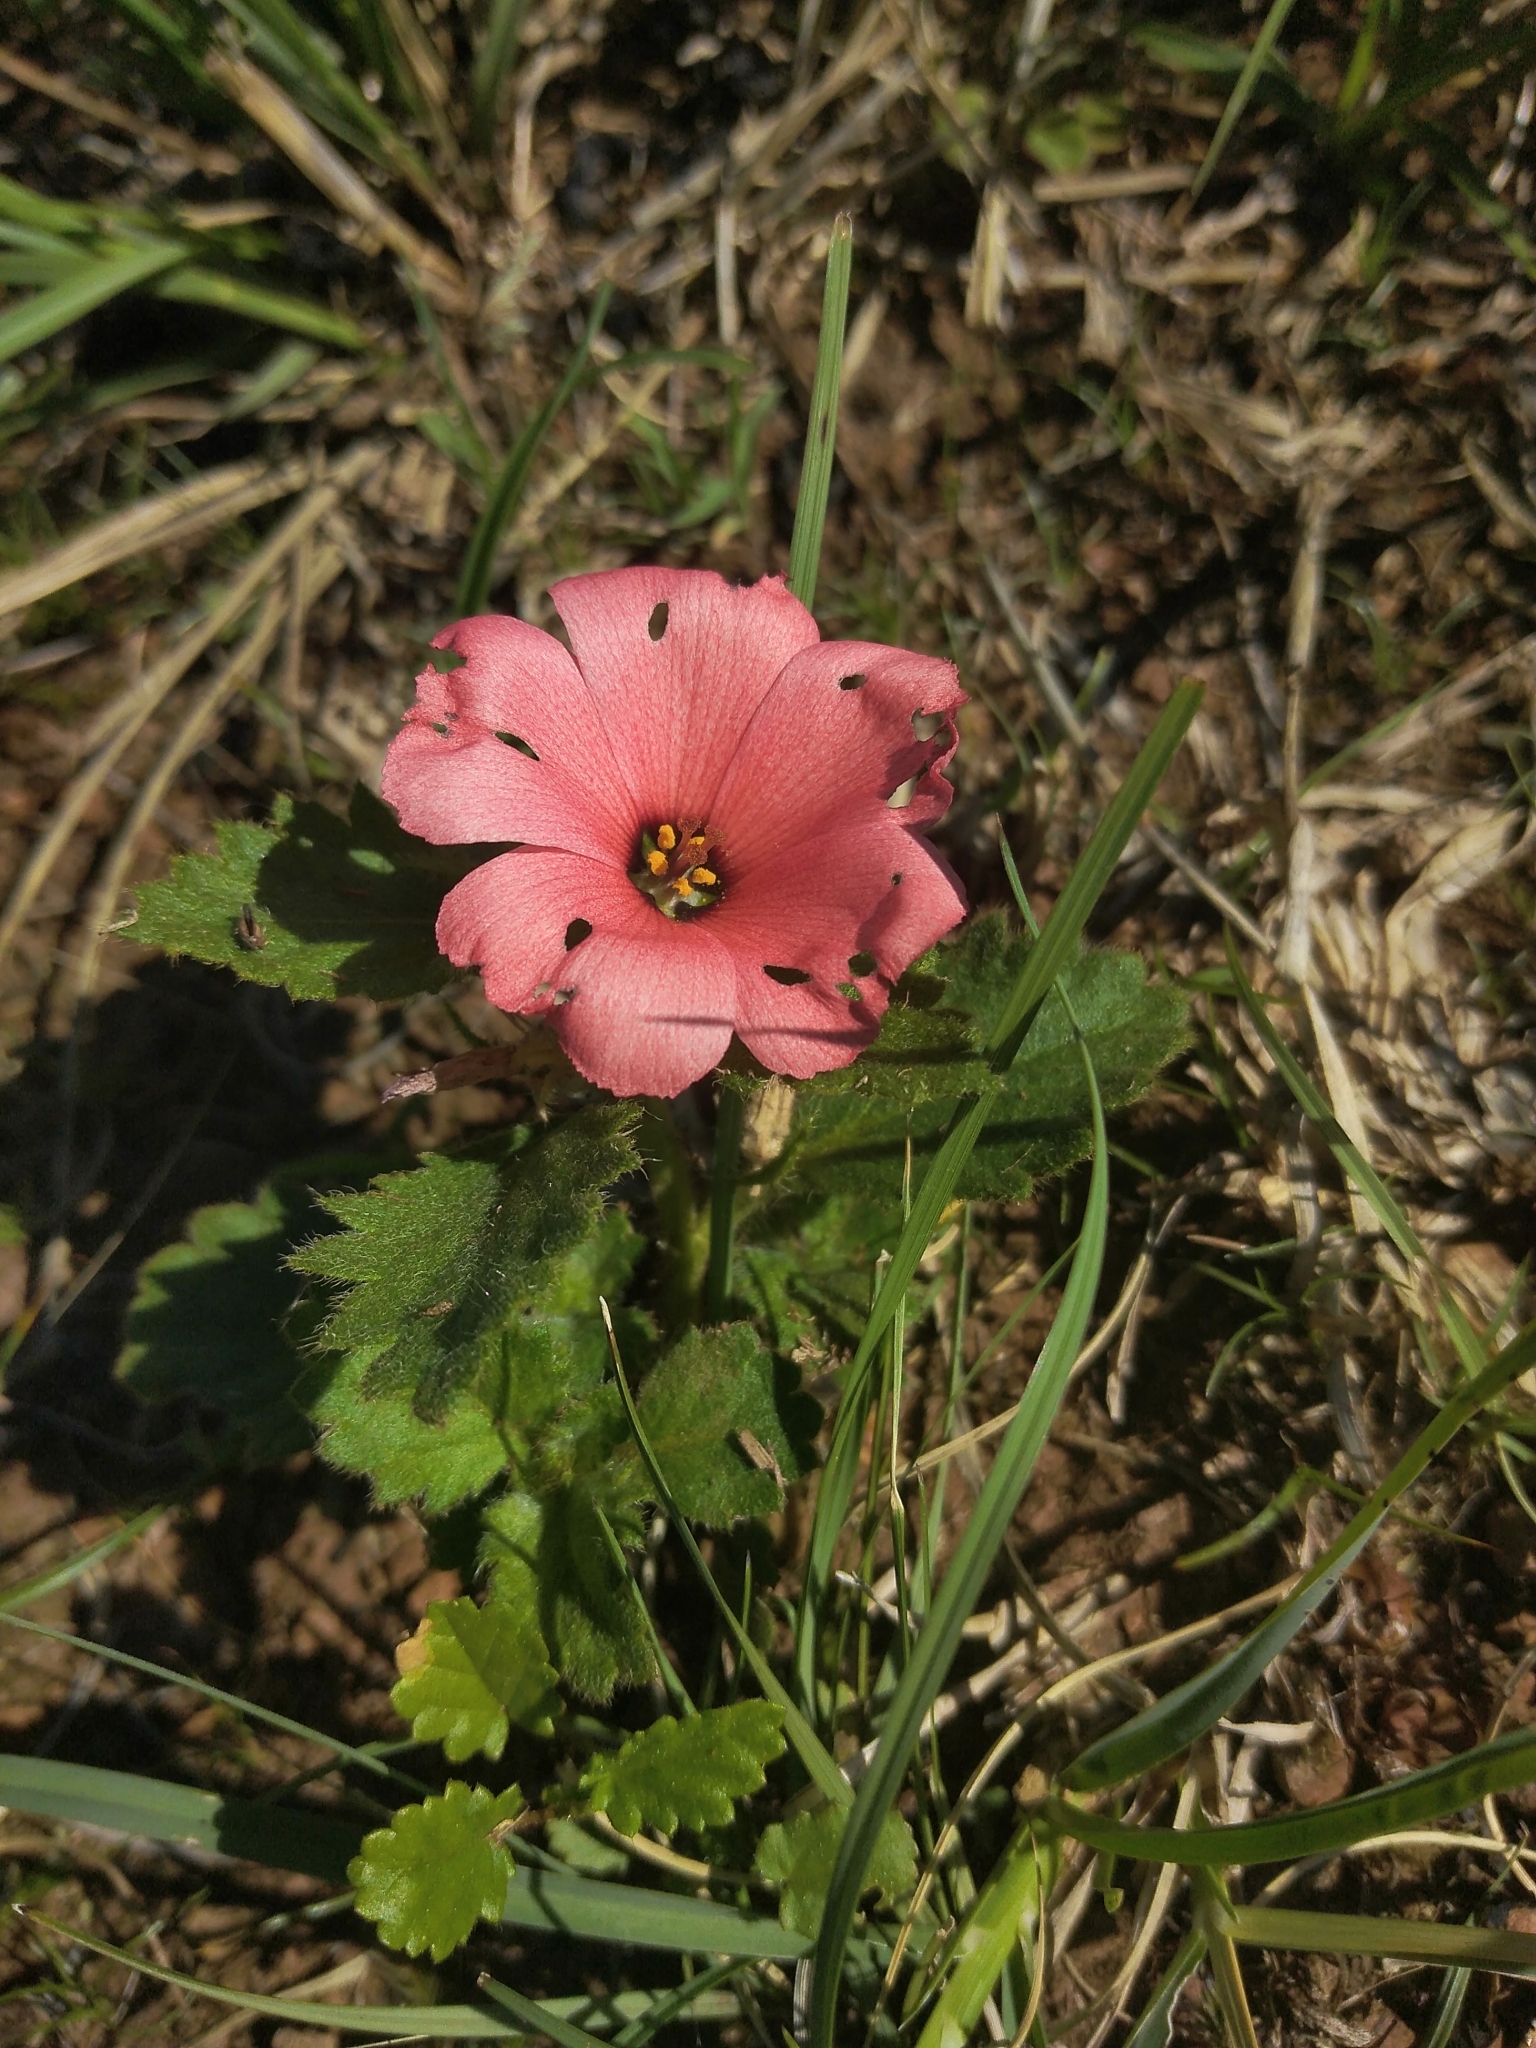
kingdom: Plantae
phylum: Tracheophyta
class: Magnoliopsida
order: Malpighiales
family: Turneraceae
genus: Turnera
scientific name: Turnera sidoides
